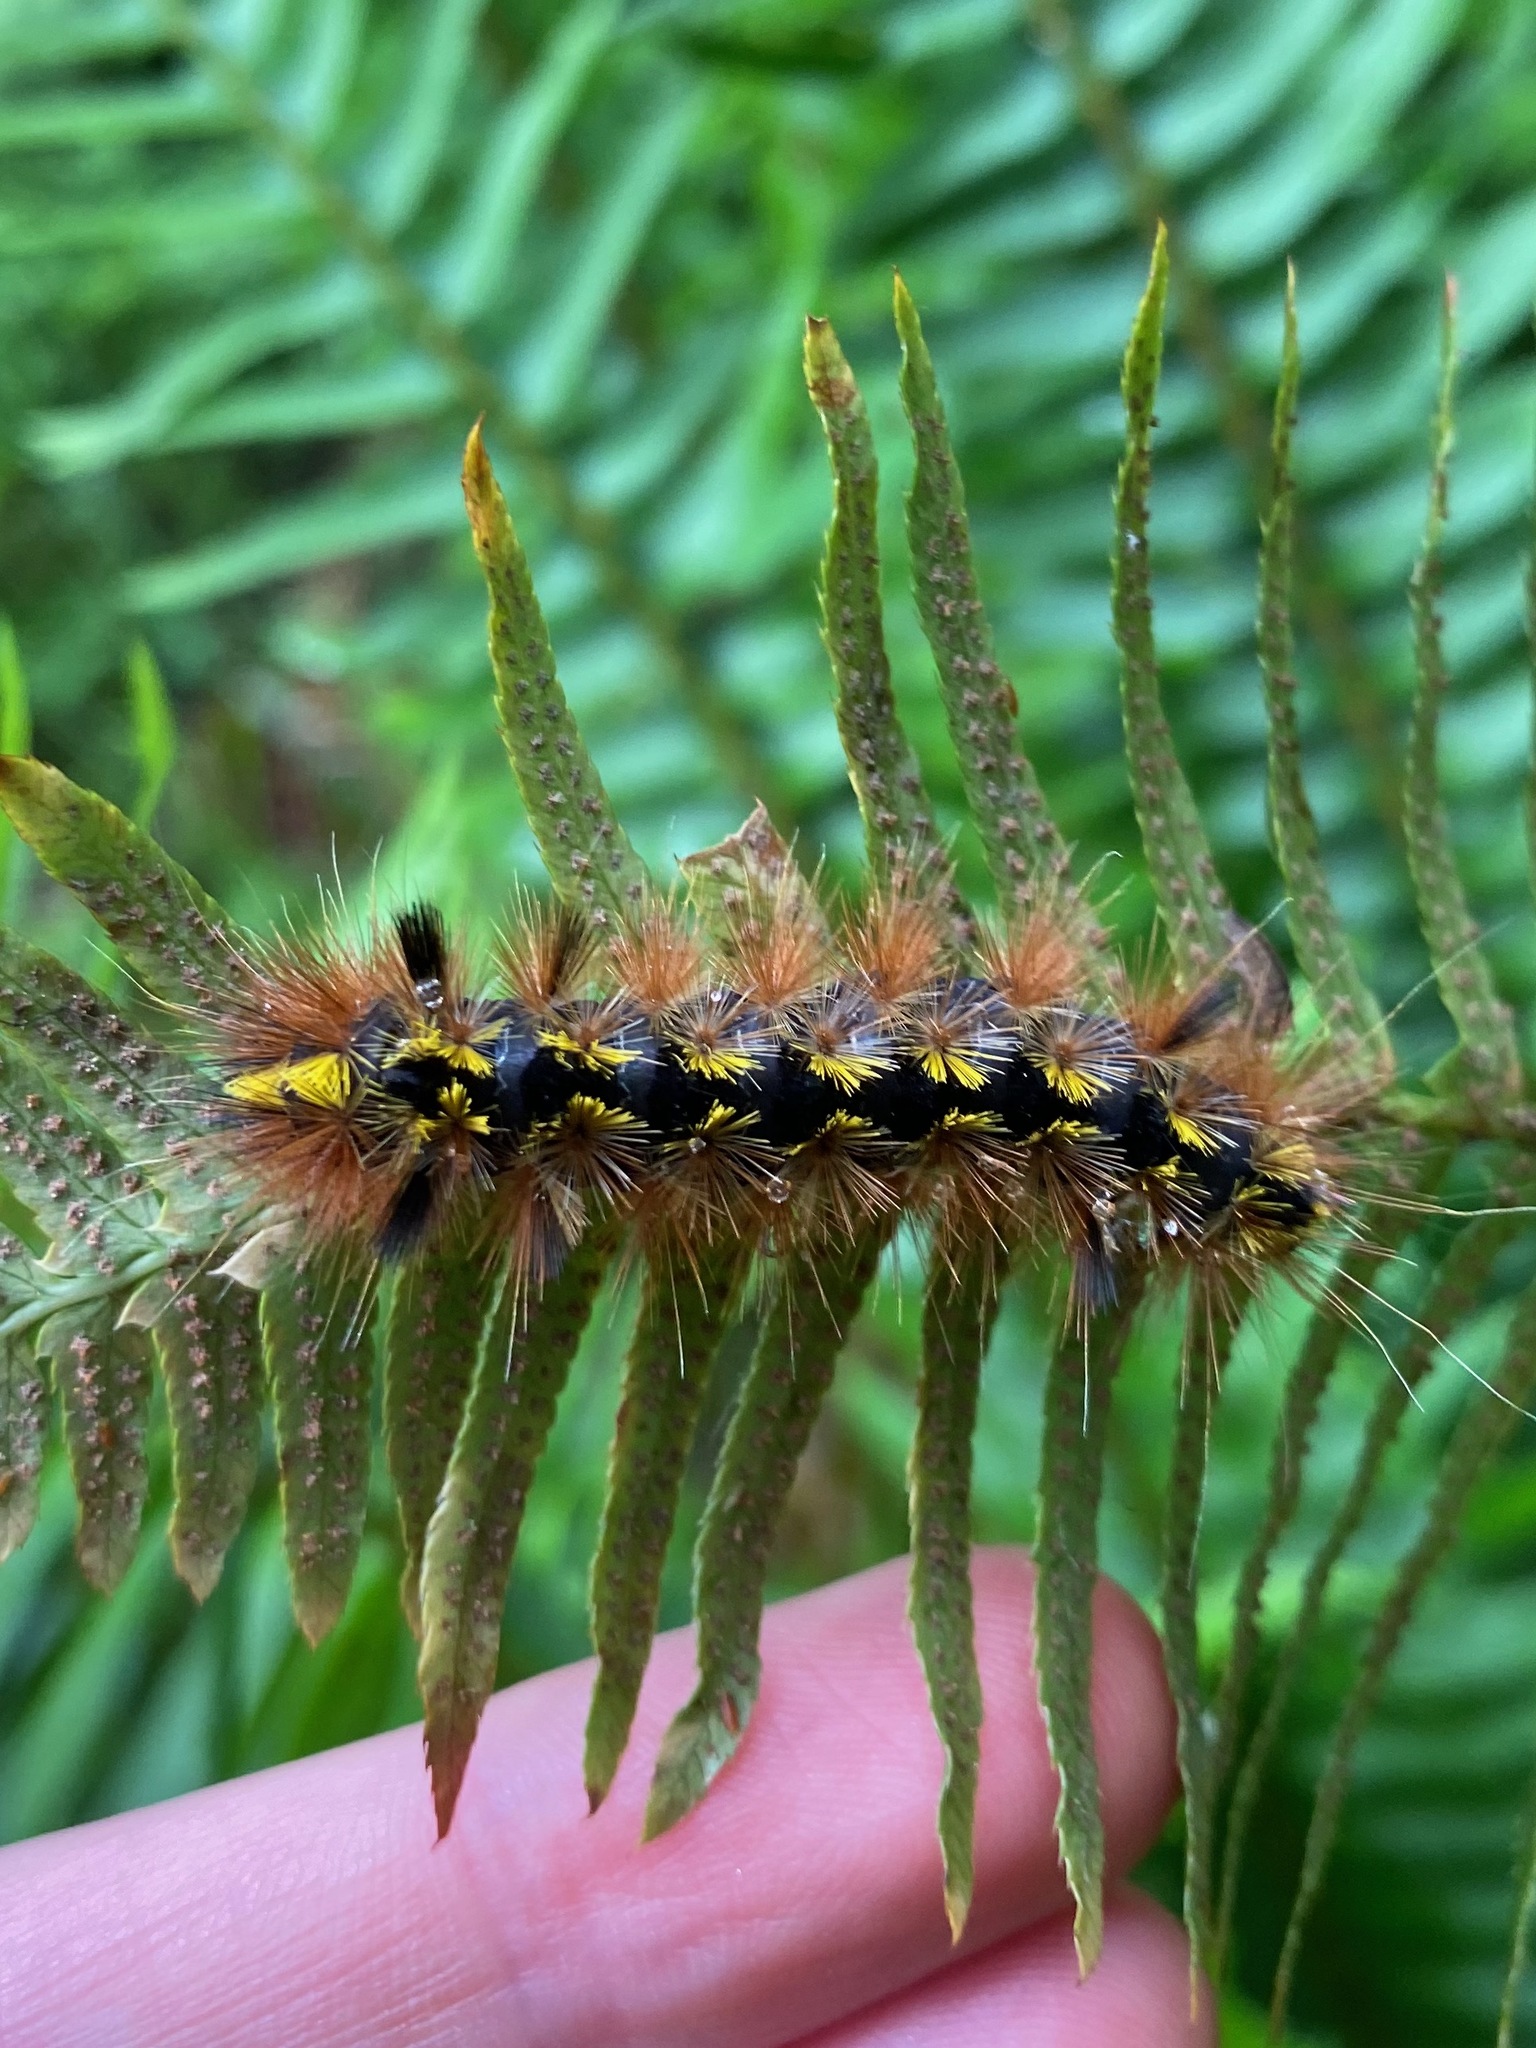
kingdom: Animalia
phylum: Arthropoda
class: Insecta
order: Lepidoptera
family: Erebidae
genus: Lophocampa
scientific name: Lophocampa argentata
